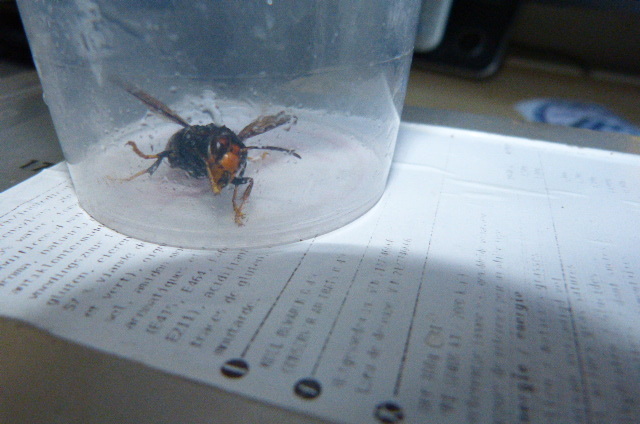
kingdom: Animalia
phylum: Arthropoda
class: Insecta
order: Hymenoptera
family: Vespidae
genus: Vespa
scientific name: Vespa velutina
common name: Asian hornet
